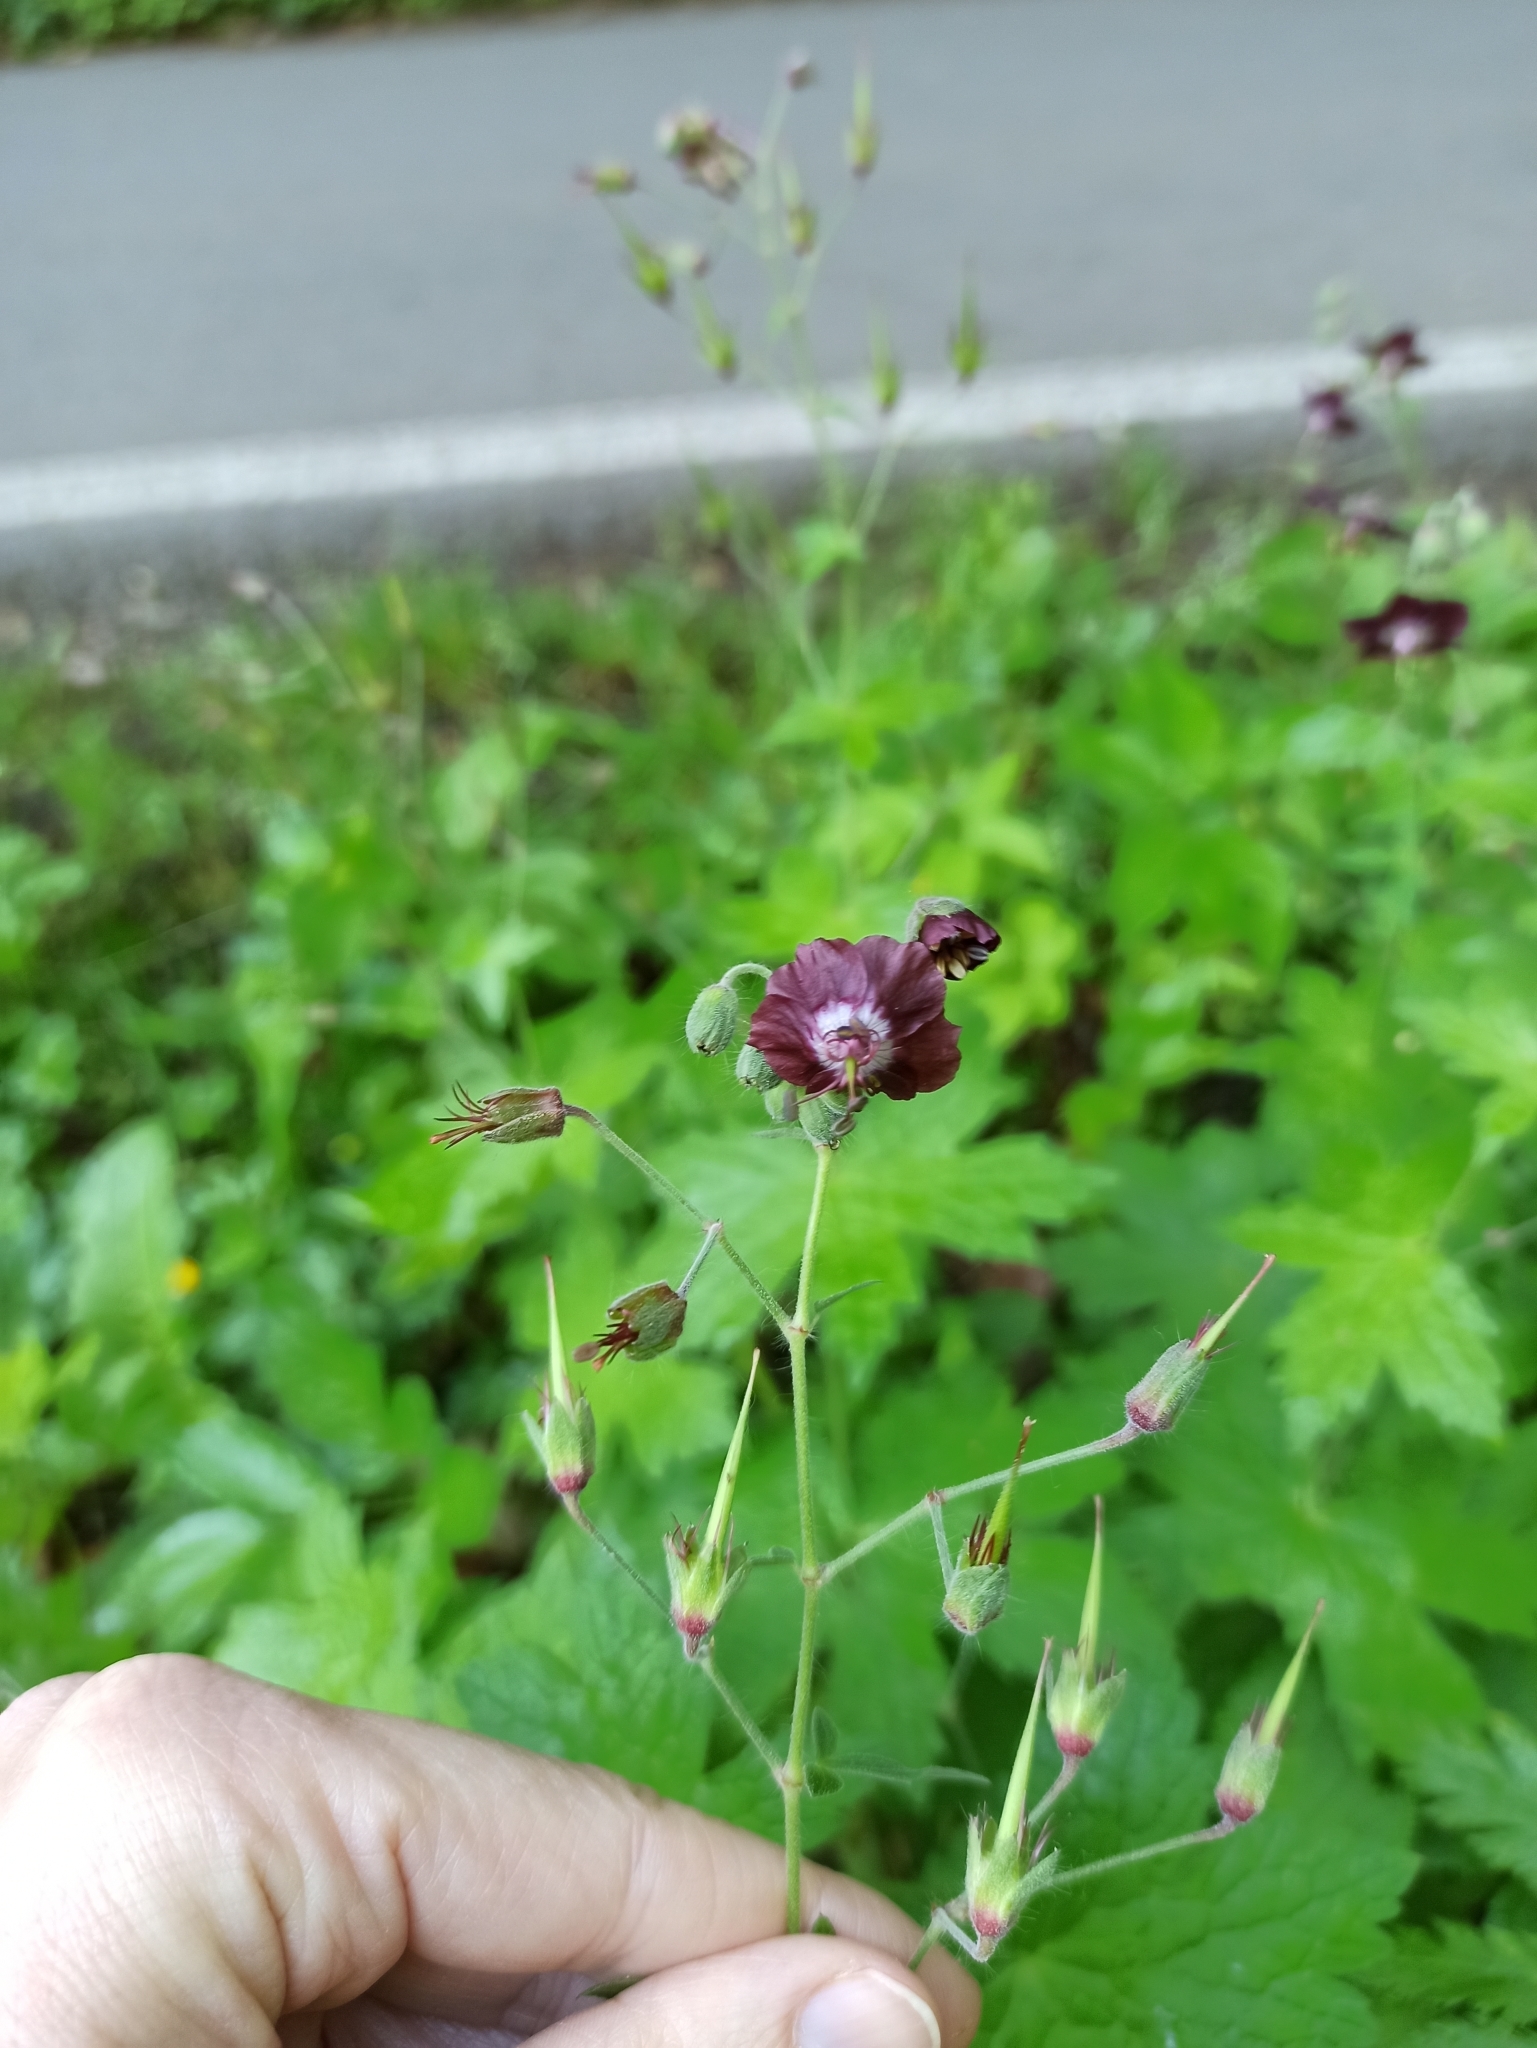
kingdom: Plantae
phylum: Tracheophyta
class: Magnoliopsida
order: Geraniales
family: Geraniaceae
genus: Geranium
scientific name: Geranium phaeum
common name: Dusky crane's-bill
